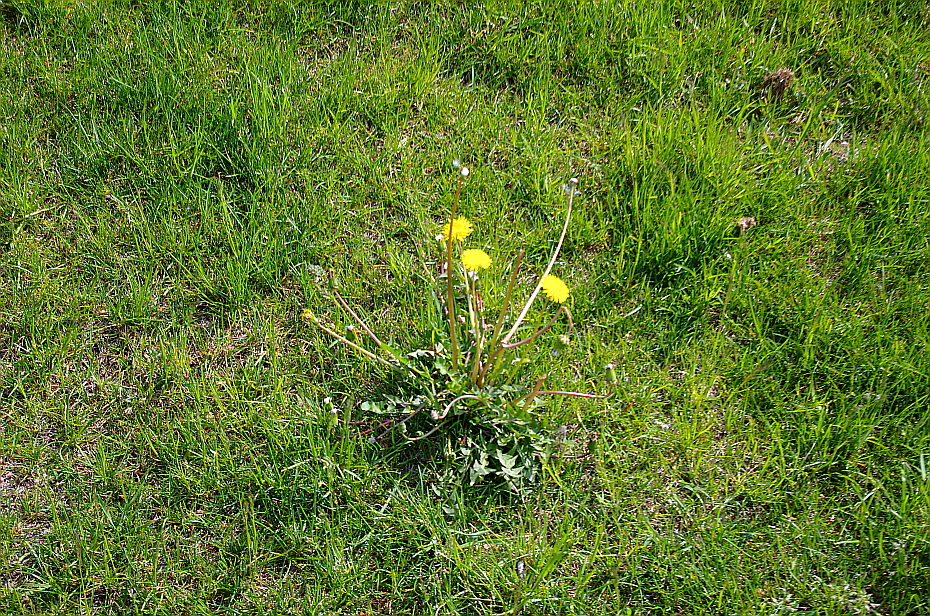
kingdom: Plantae
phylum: Tracheophyta
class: Magnoliopsida
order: Asterales
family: Asteraceae
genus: Taraxacum
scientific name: Taraxacum officinale
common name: Common dandelion
